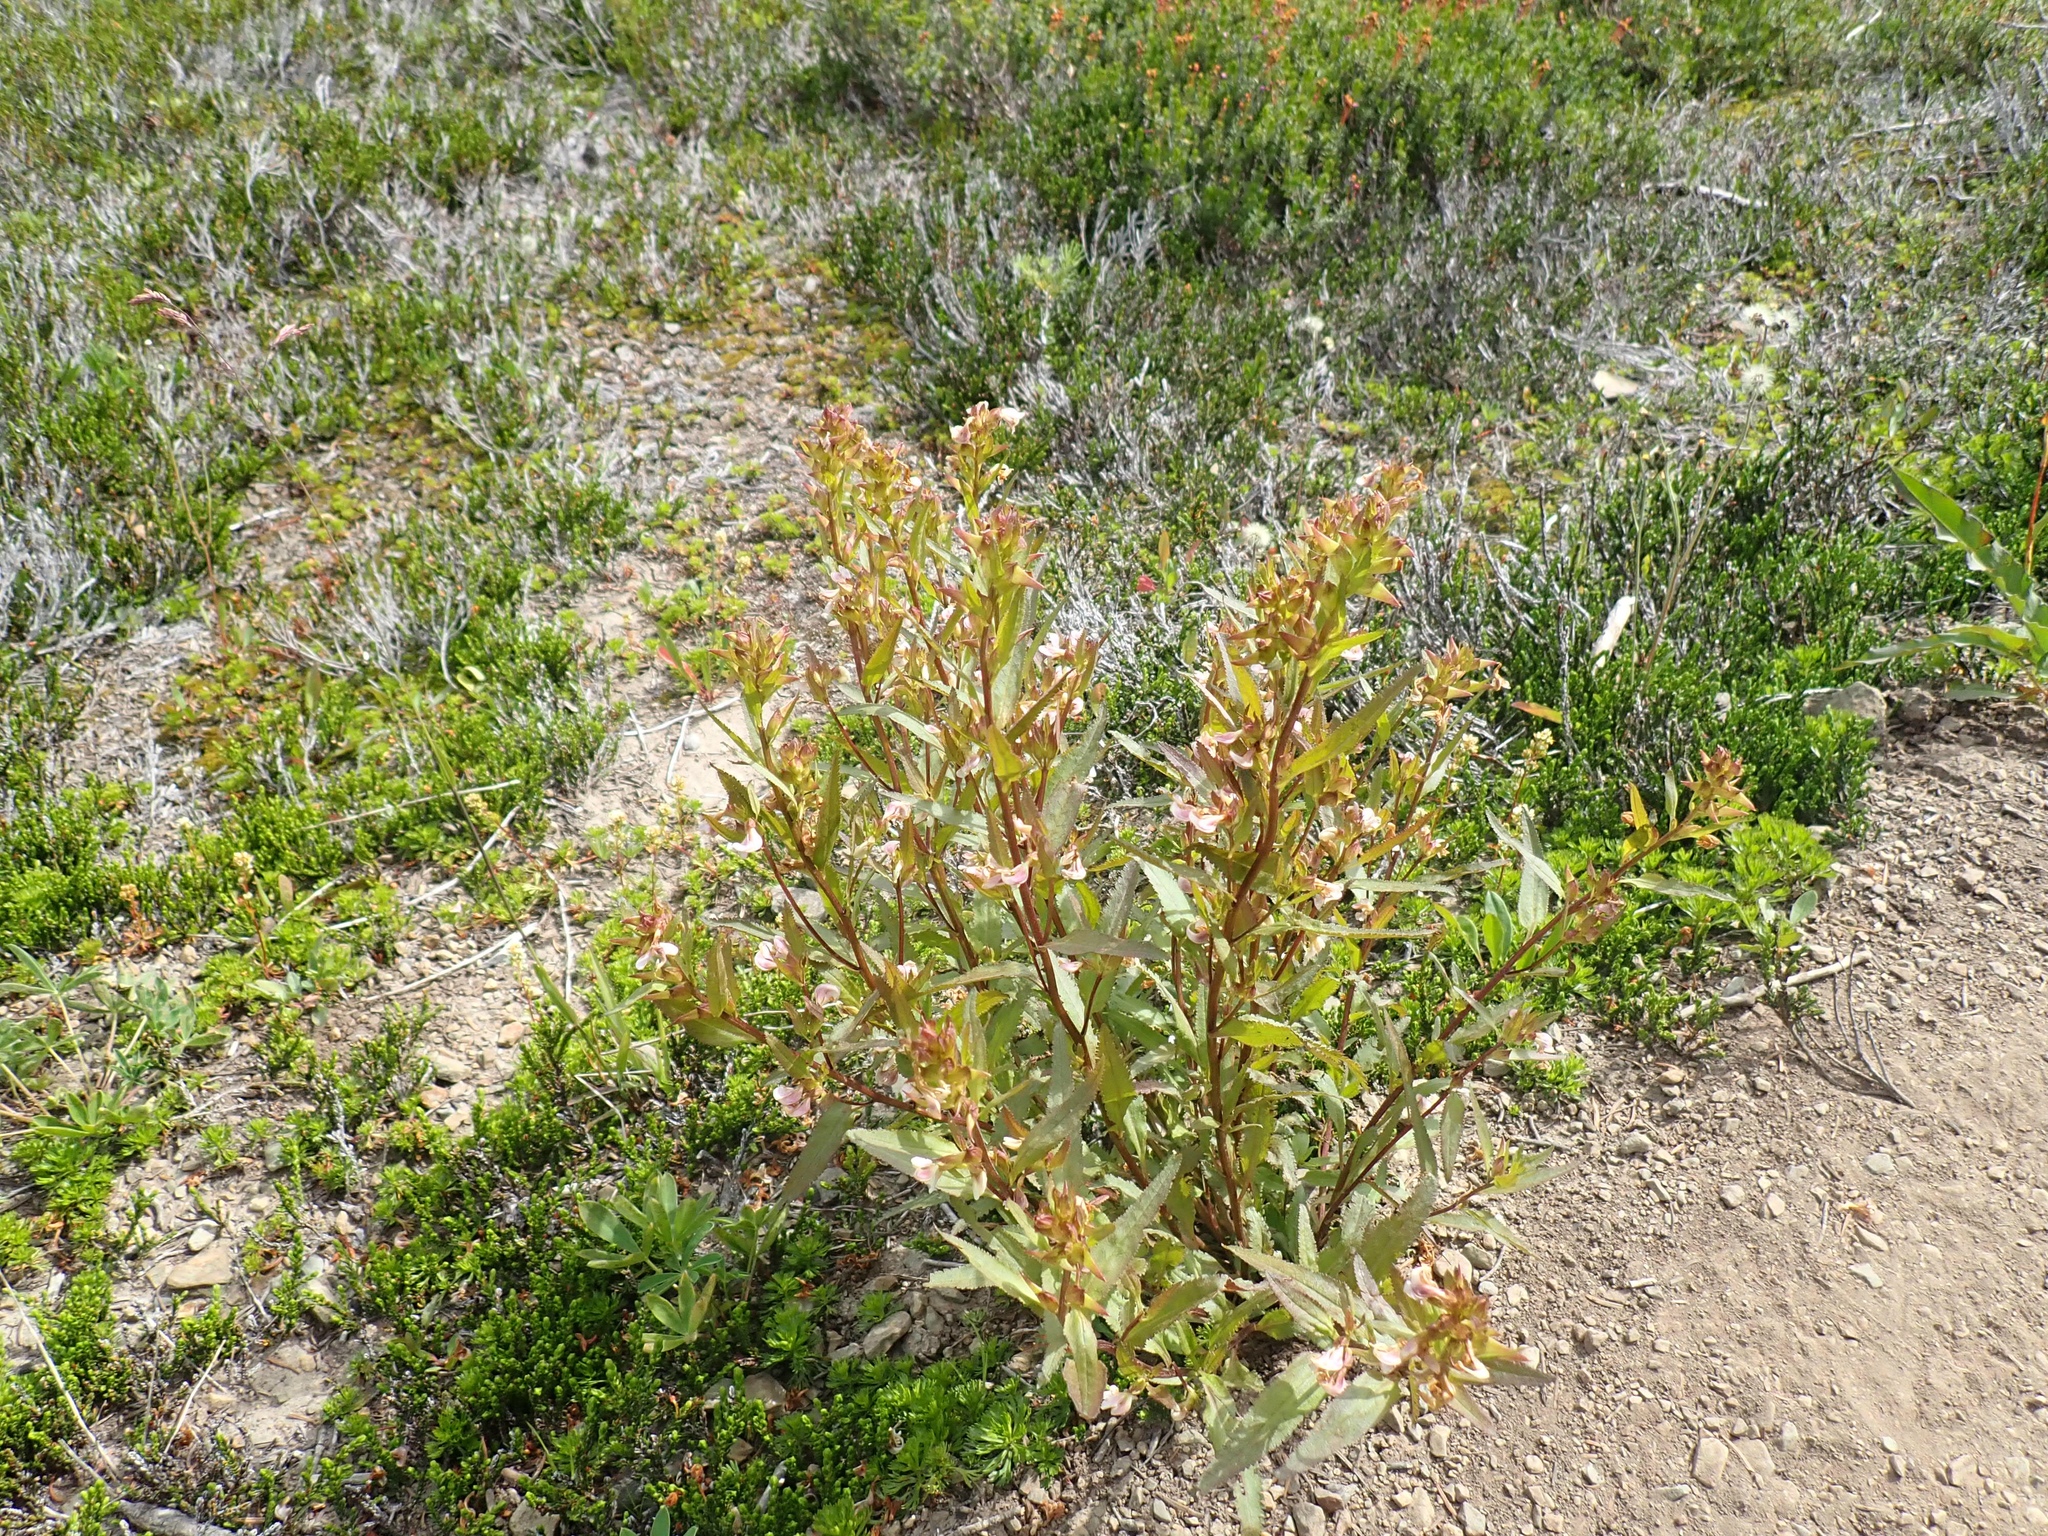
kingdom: Plantae
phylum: Tracheophyta
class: Magnoliopsida
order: Lamiales
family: Orobanchaceae
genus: Pedicularis
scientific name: Pedicularis racemosa
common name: Leafy lousewort
